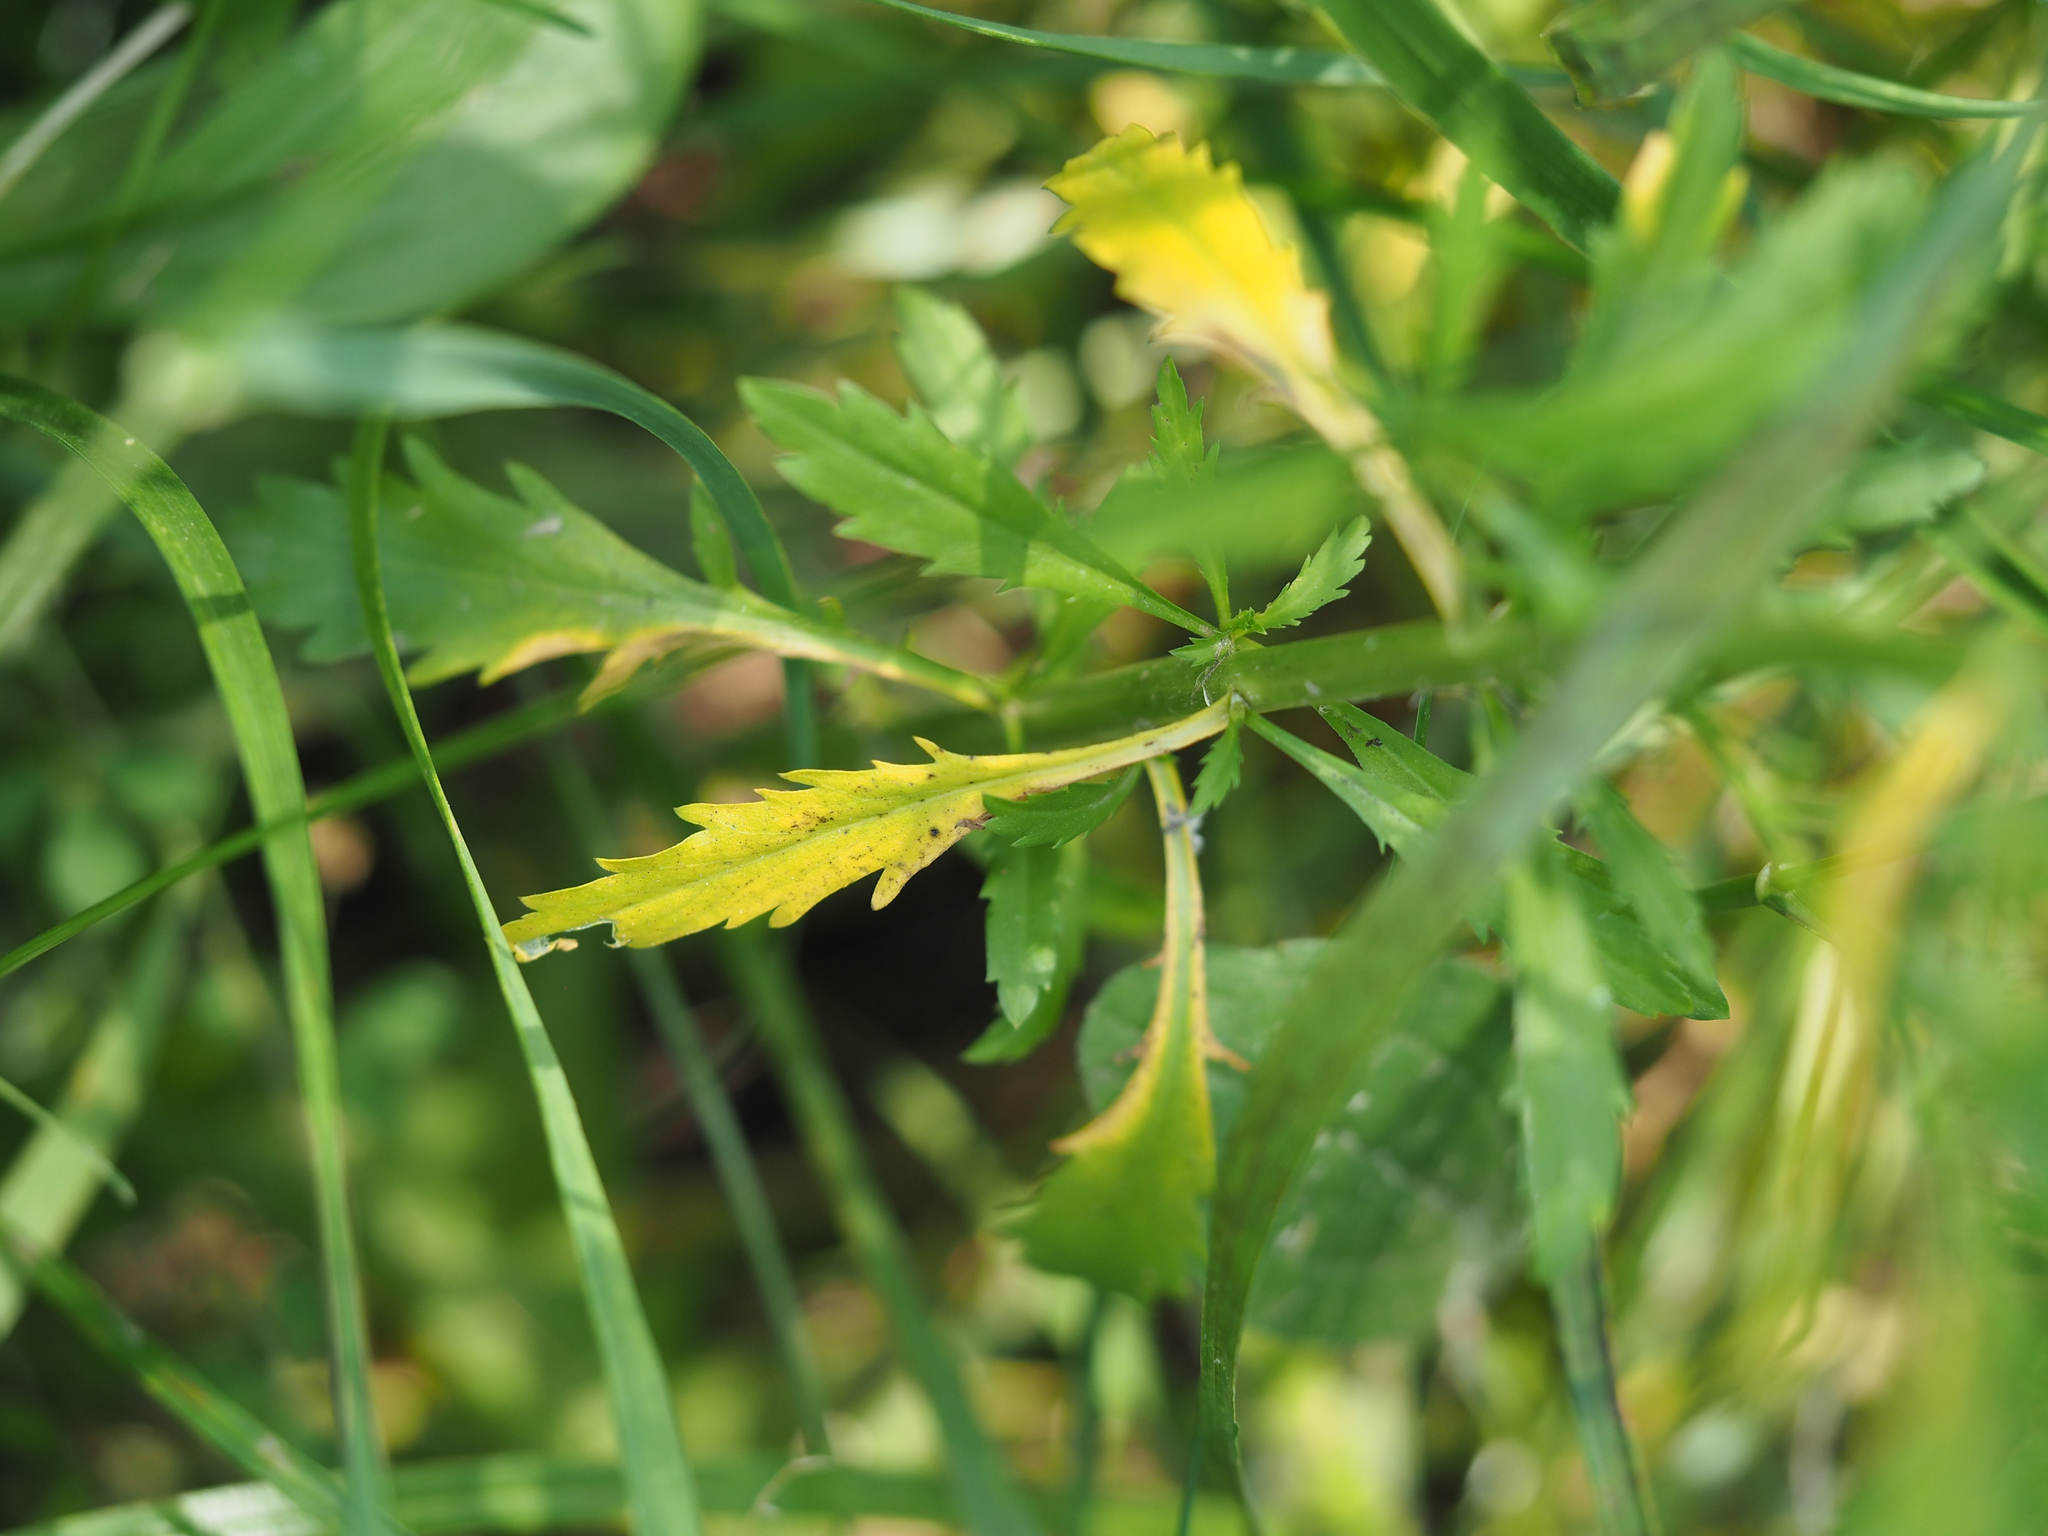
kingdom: Plantae
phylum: Tracheophyta
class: Magnoliopsida
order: Brassicales
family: Brassicaceae
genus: Lepidium
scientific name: Lepidium virginicum
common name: Least pepperwort
